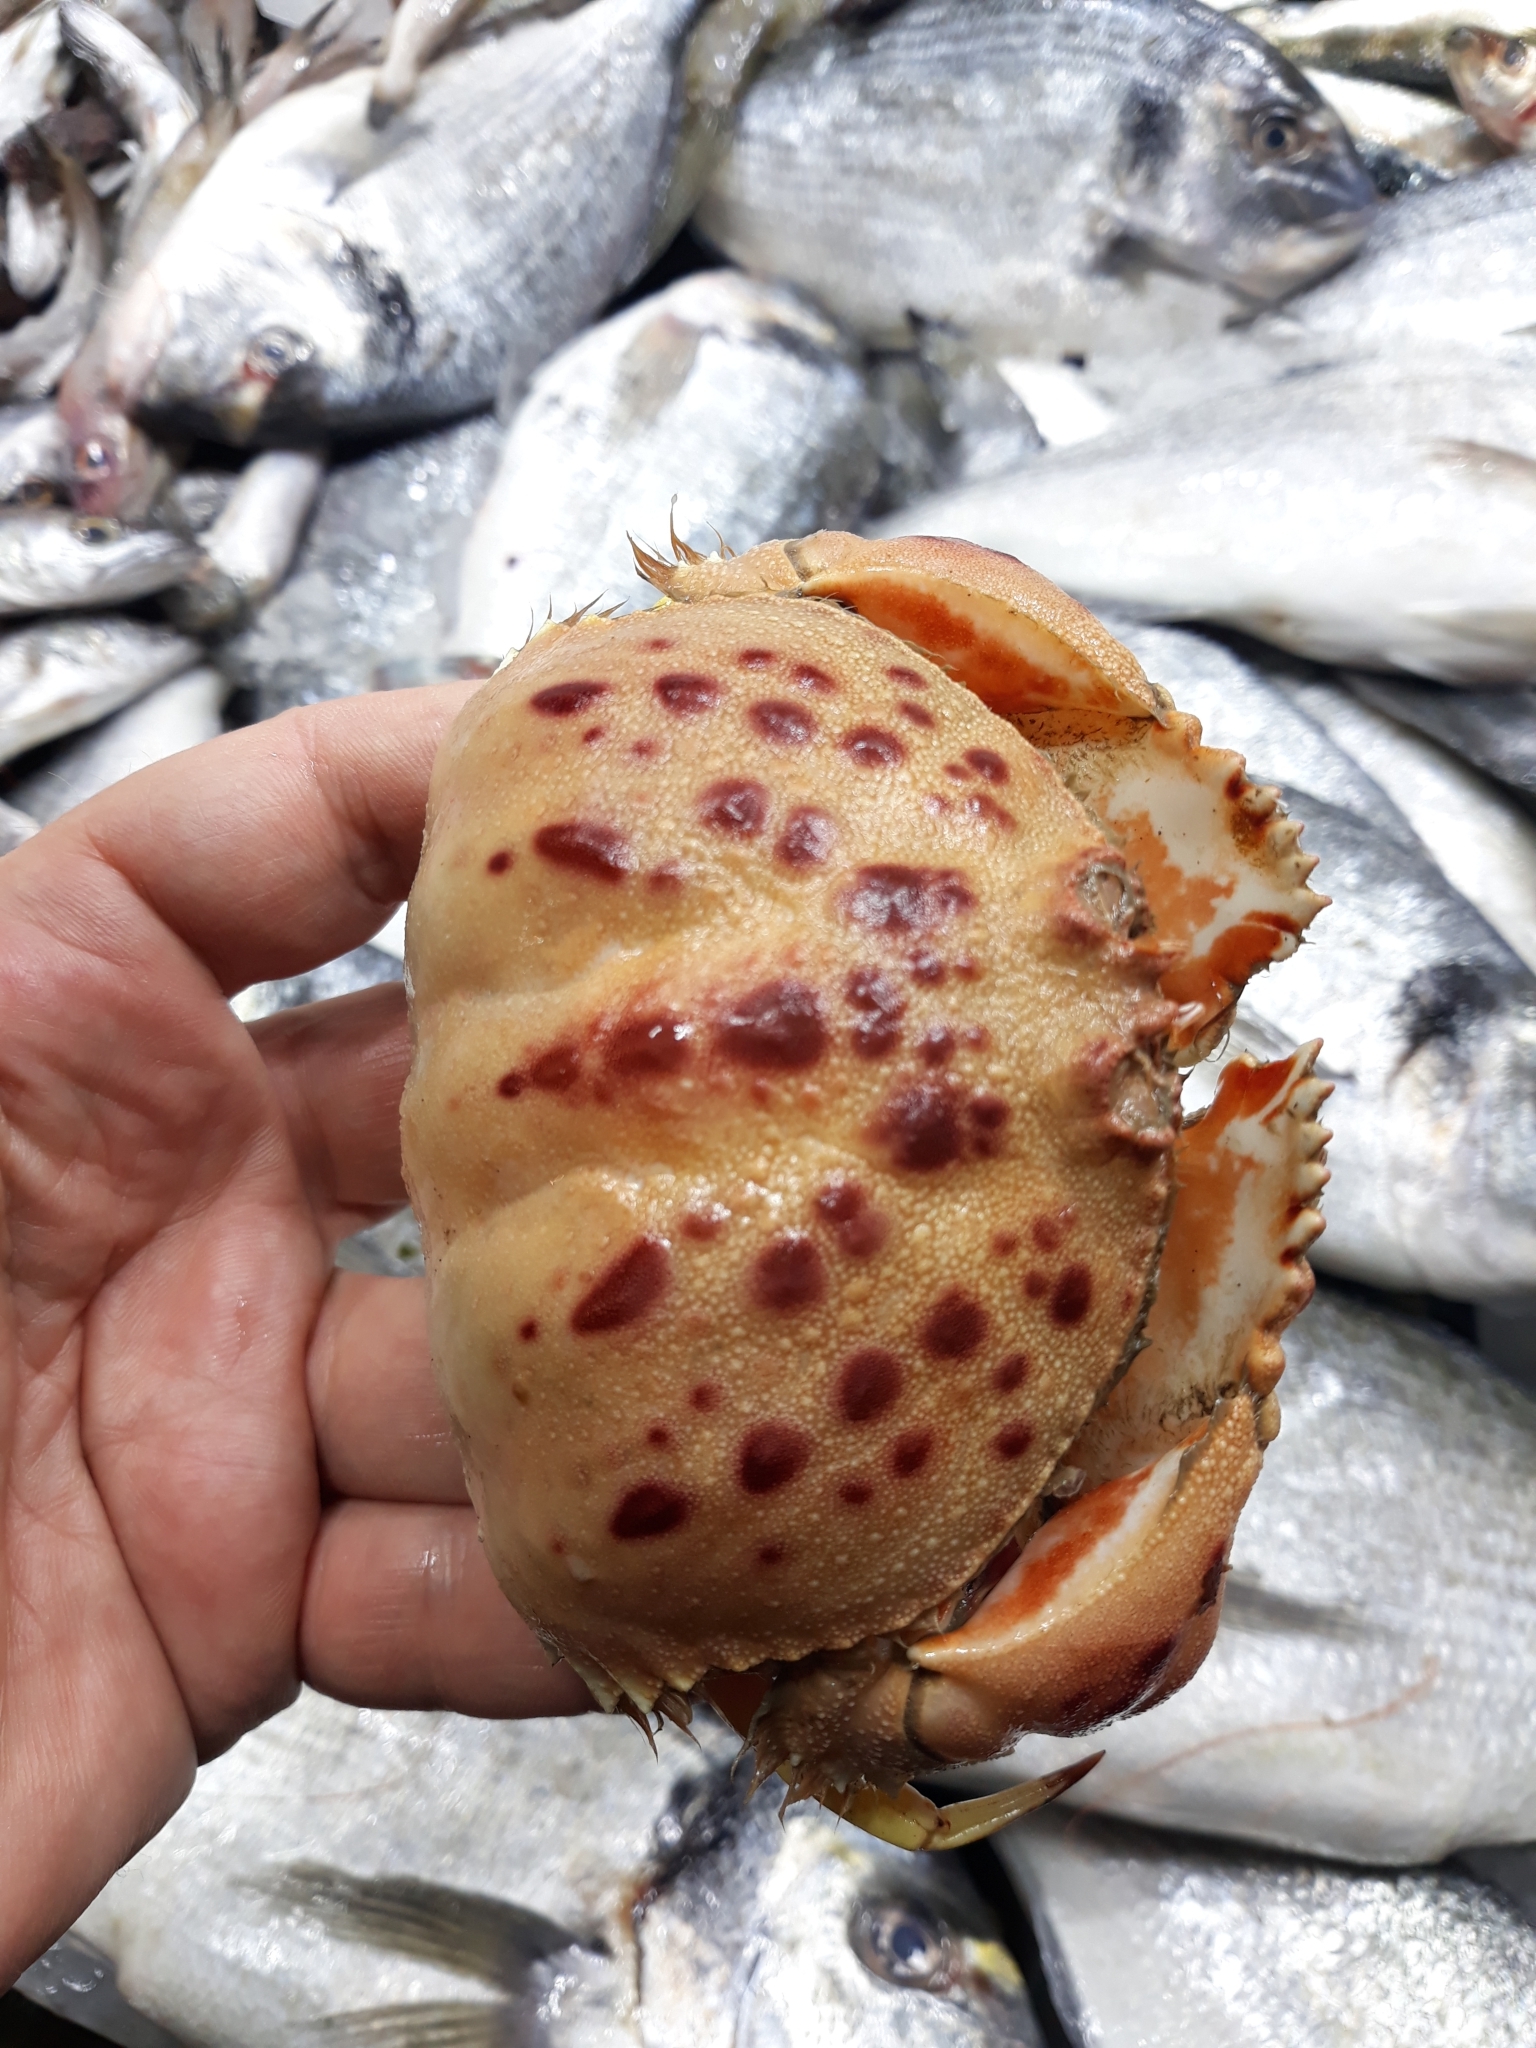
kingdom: Animalia
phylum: Arthropoda
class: Malacostraca
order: Decapoda
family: Calappidae
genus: Calappa
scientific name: Calappa granulata
